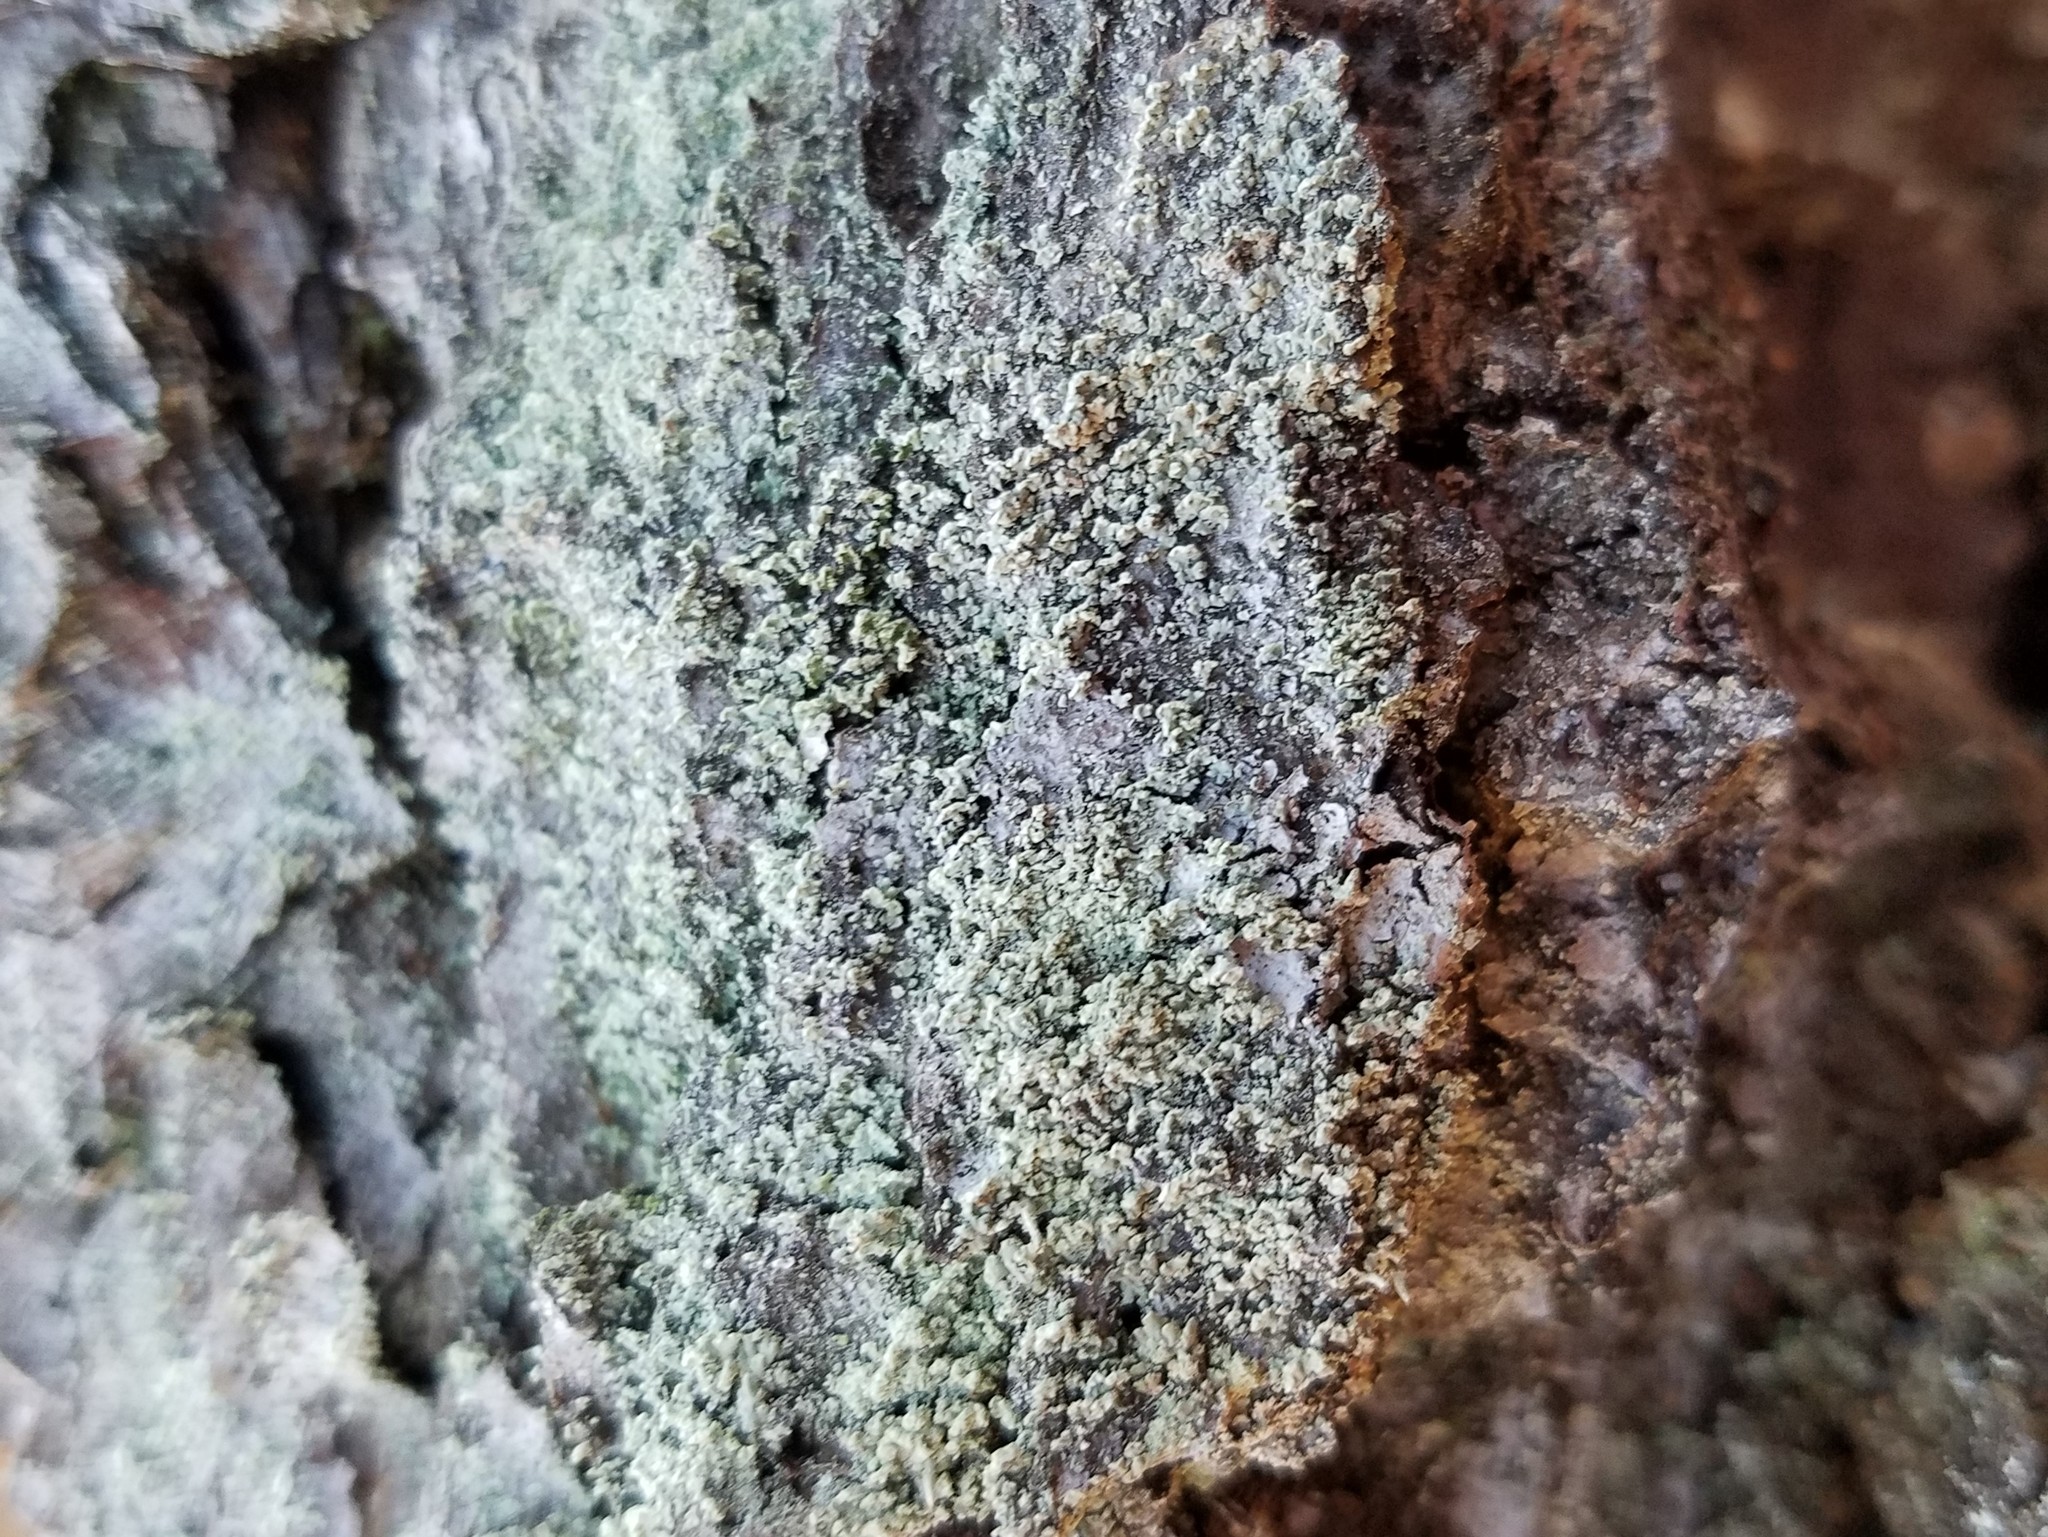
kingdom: Fungi
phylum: Ascomycota
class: Lecanoromycetes
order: Lecanorales
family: Cladoniaceae
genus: Cladonia
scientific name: Cladonia ravenelii
